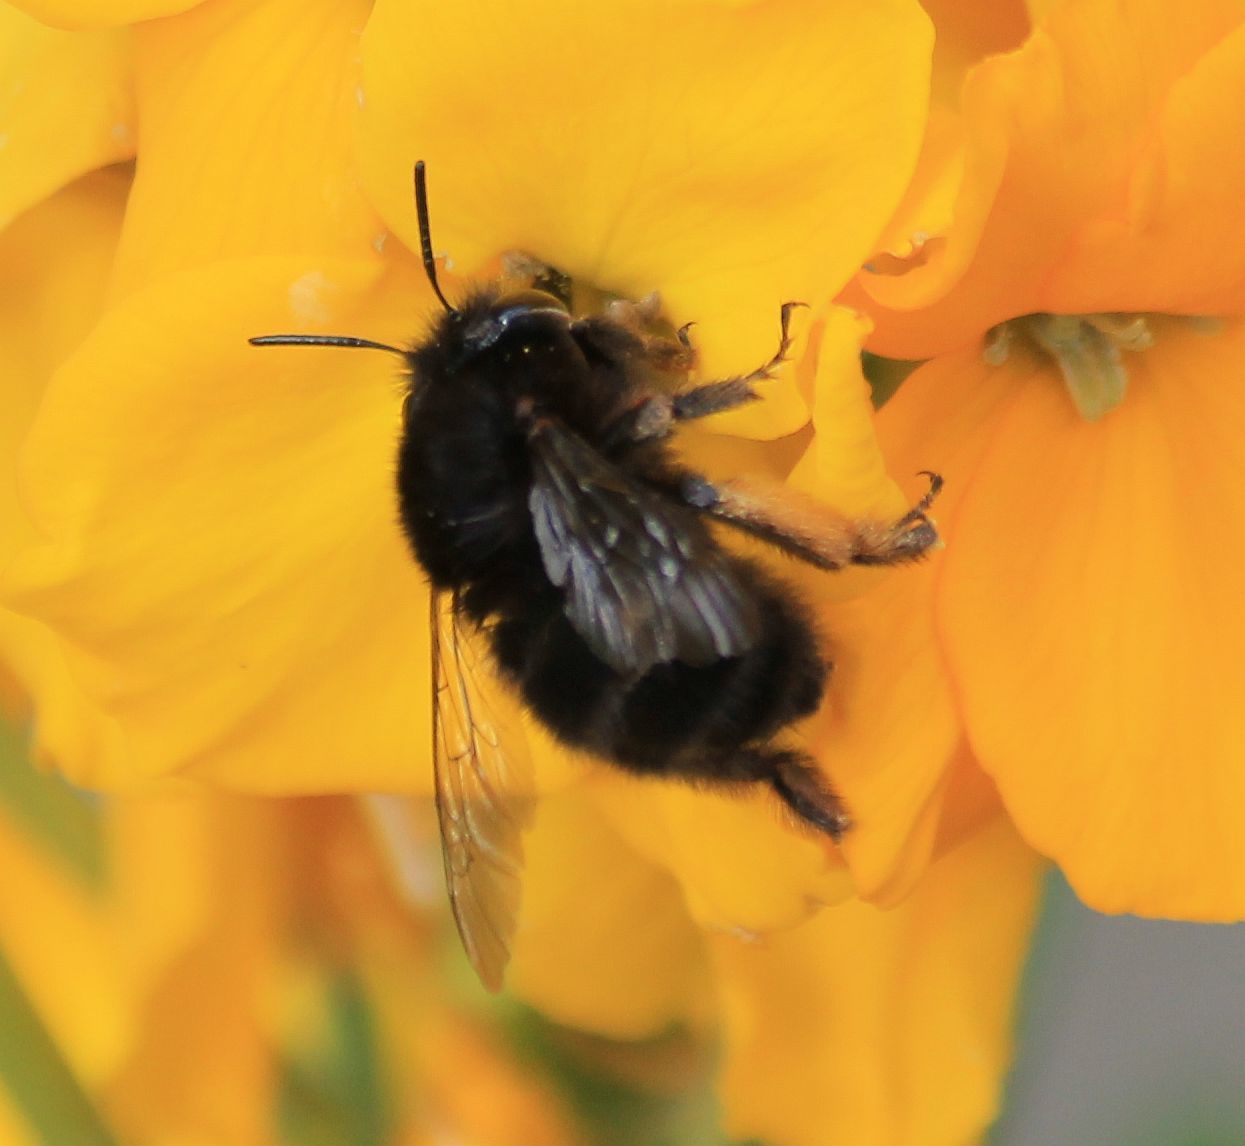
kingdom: Animalia
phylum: Arthropoda
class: Insecta
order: Hymenoptera
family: Apidae
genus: Anthophora
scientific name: Anthophora plumipes
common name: Hairy-footed flower bee
